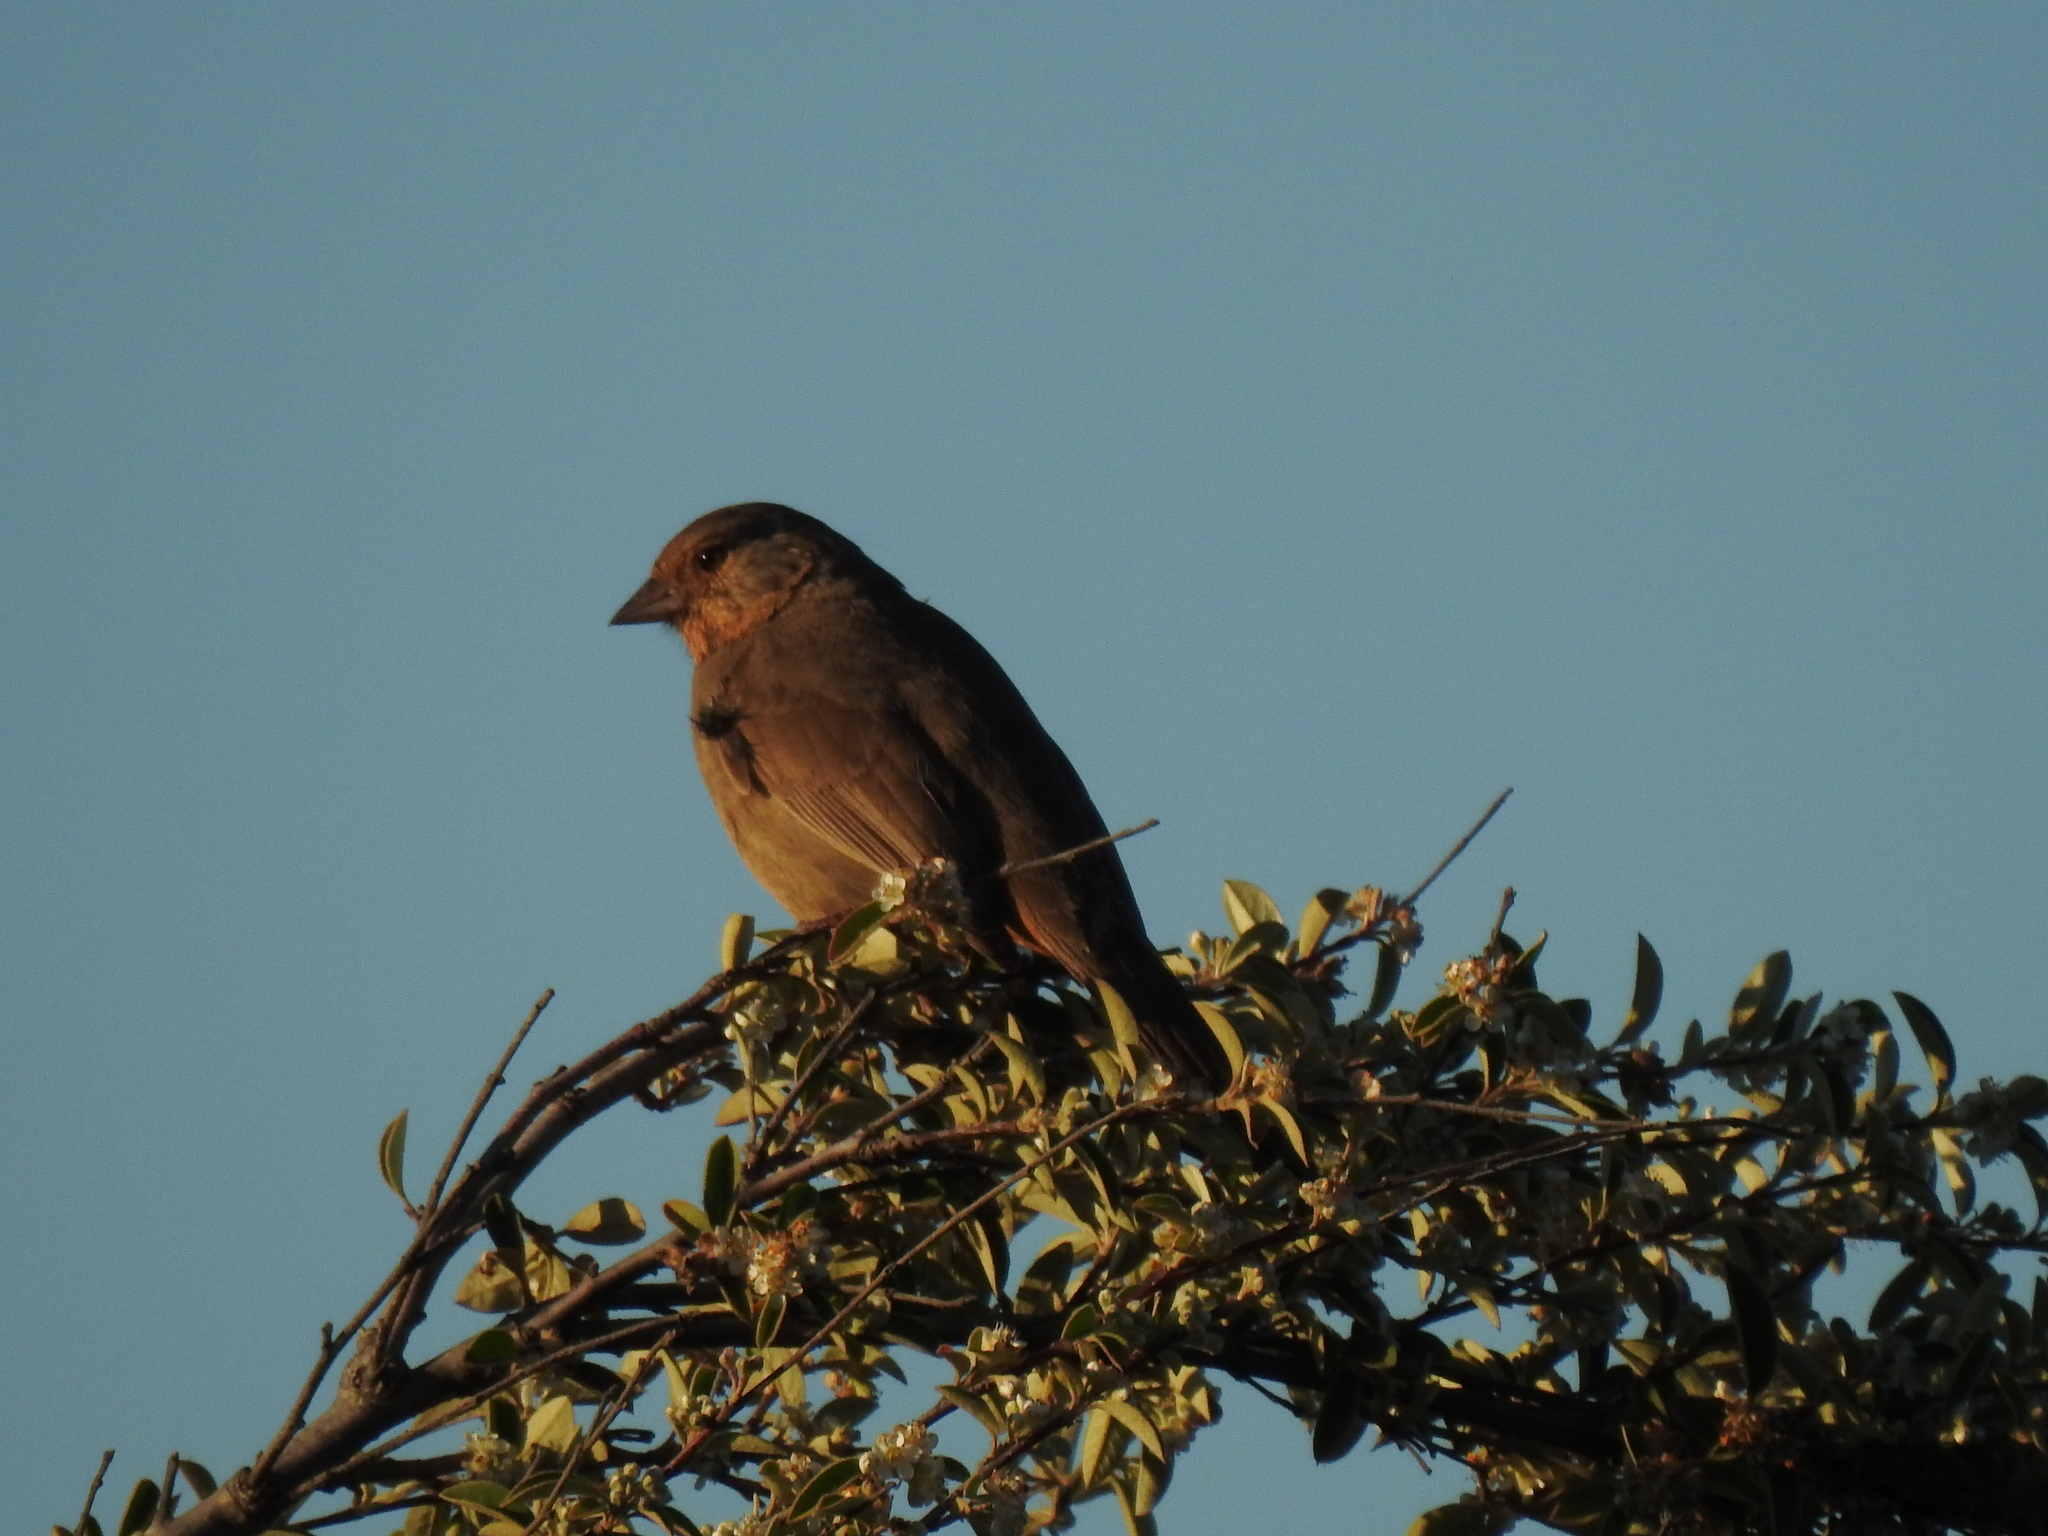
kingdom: Animalia
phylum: Chordata
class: Aves
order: Passeriformes
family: Passerellidae
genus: Melozone
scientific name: Melozone crissalis
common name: California towhee
